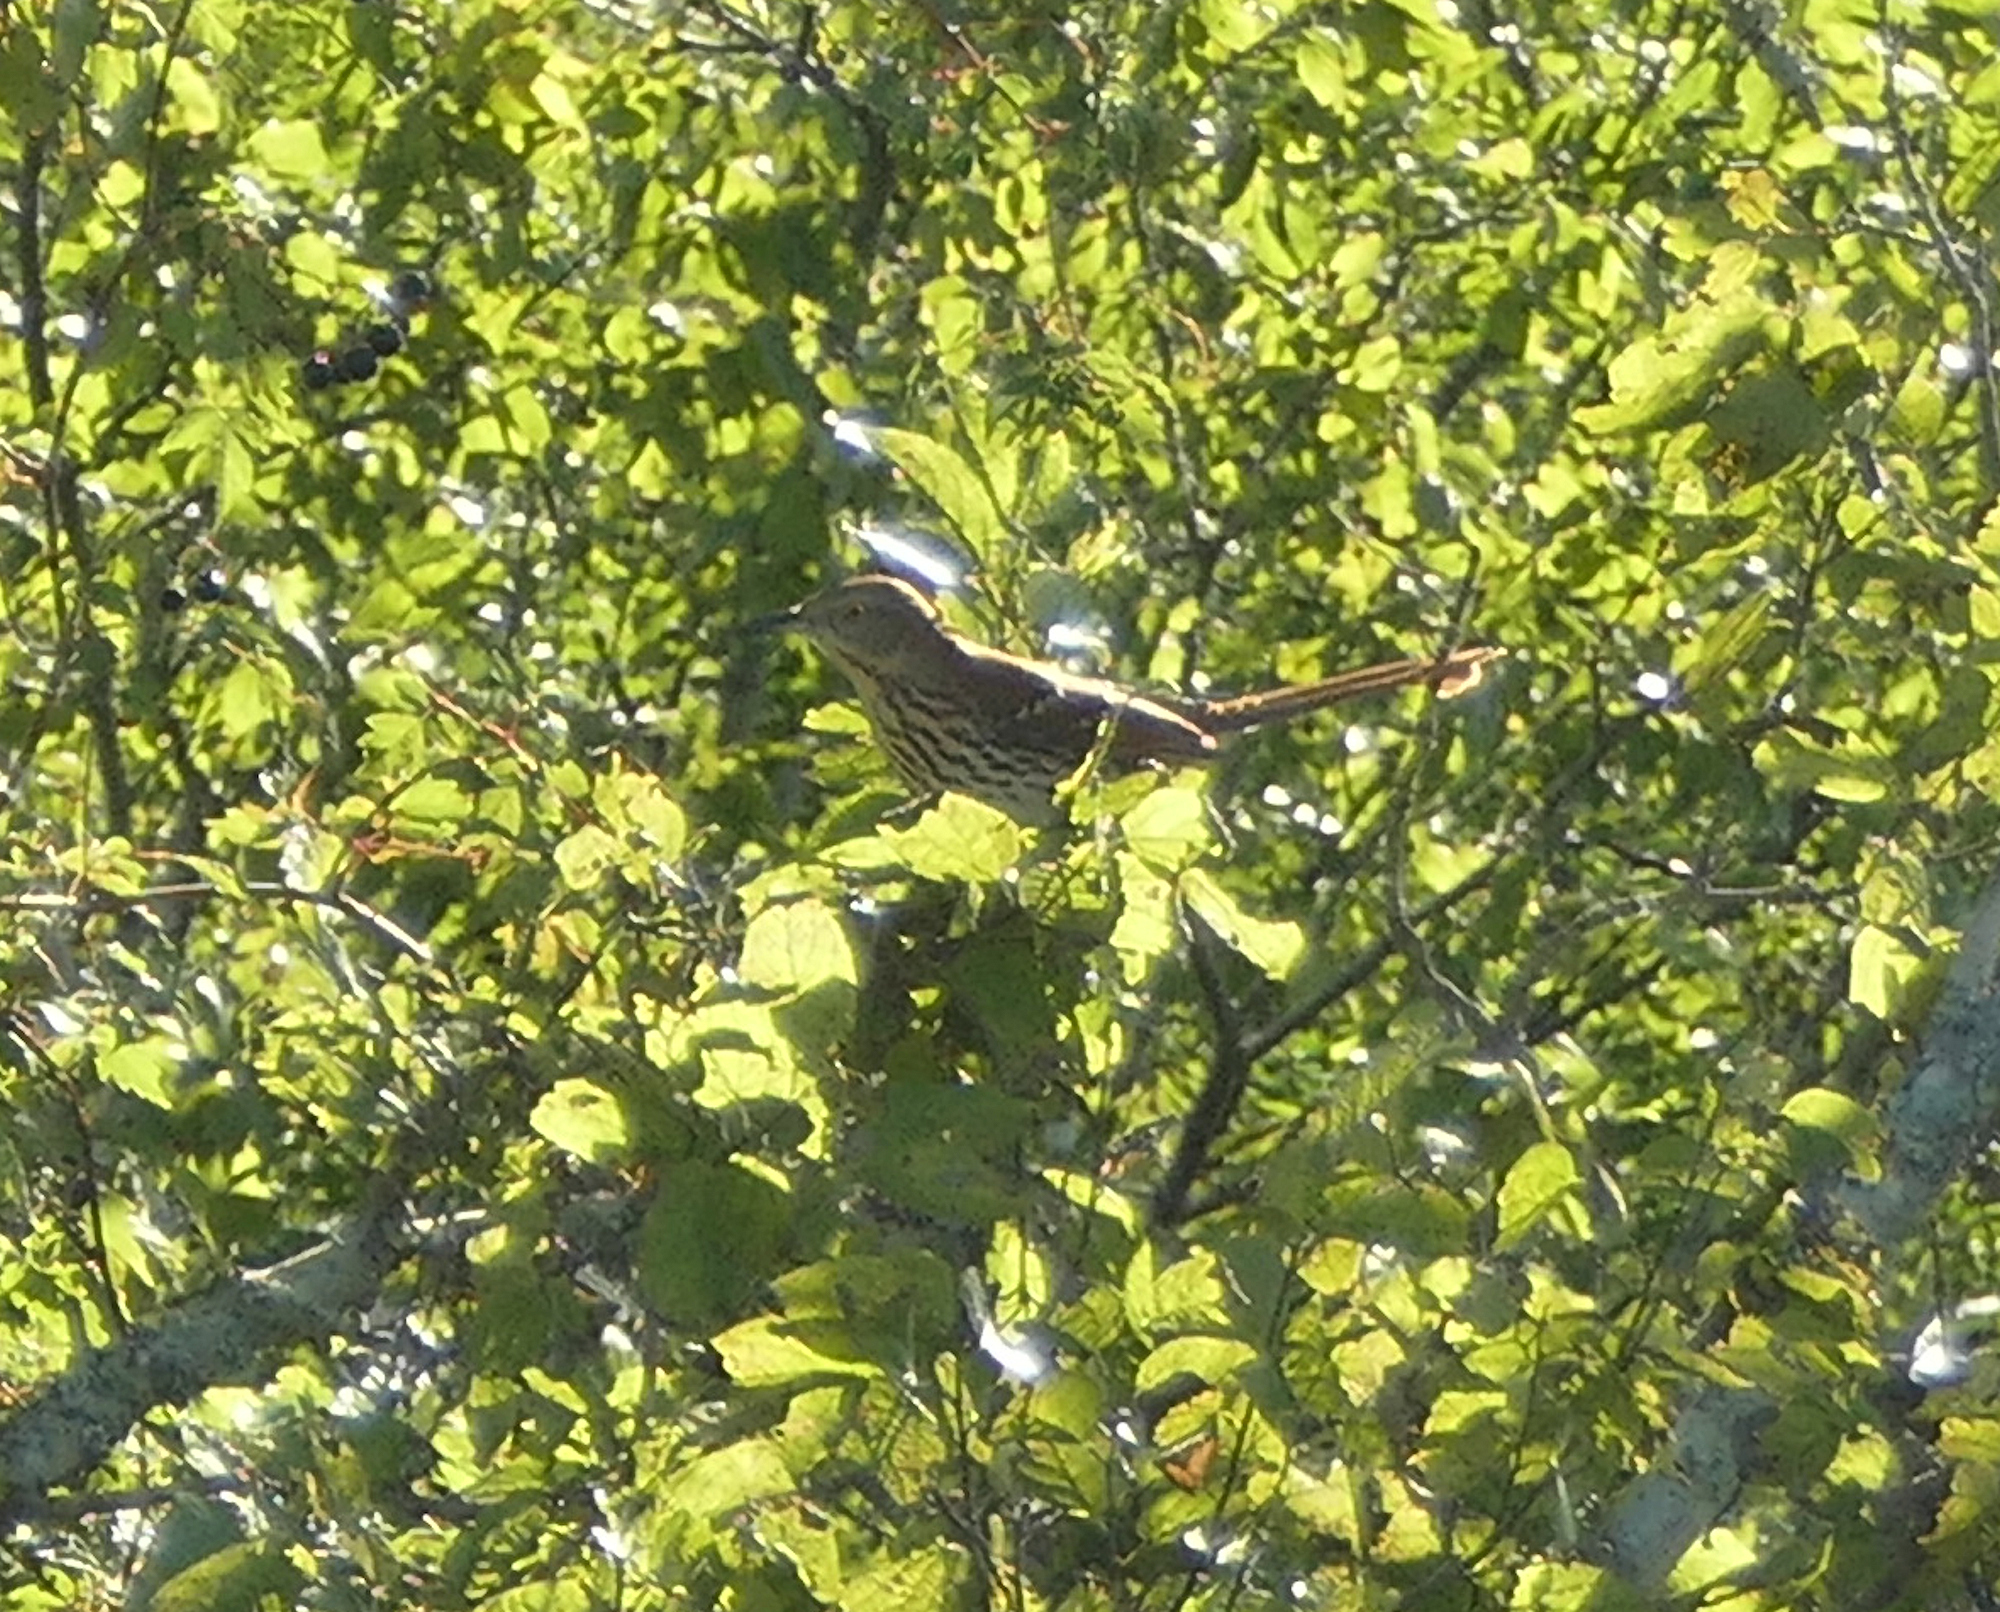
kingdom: Animalia
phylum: Chordata
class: Aves
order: Passeriformes
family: Mimidae
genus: Toxostoma
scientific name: Toxostoma rufum
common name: Brown thrasher
